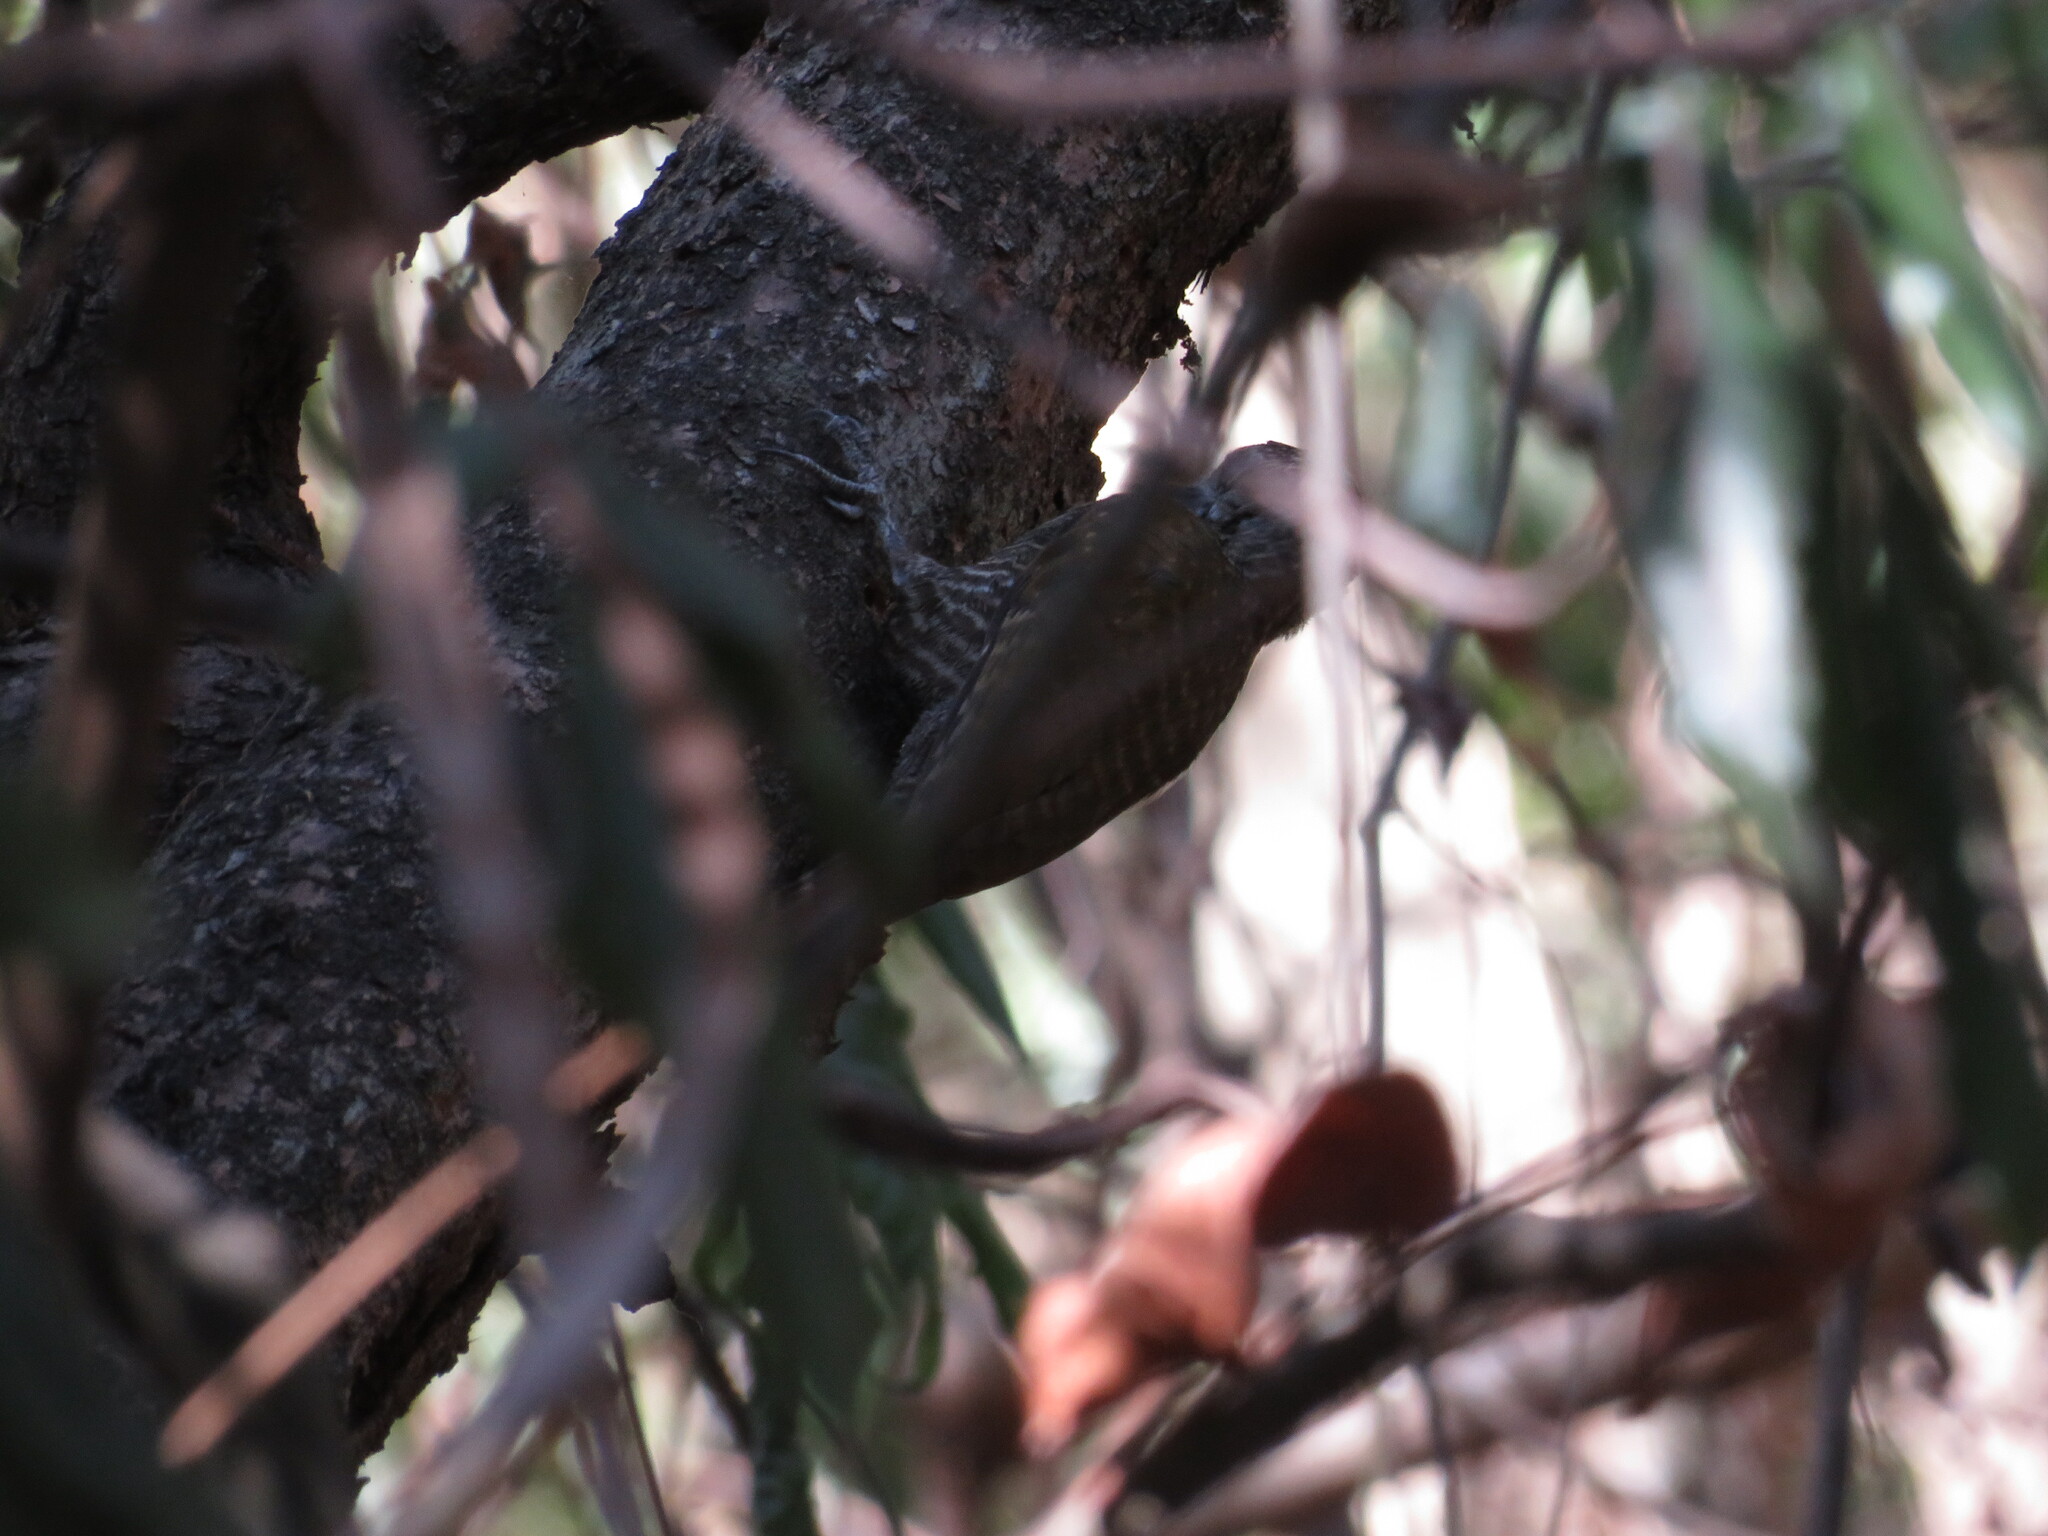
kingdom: Animalia
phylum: Chordata
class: Aves
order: Piciformes
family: Picidae
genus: Veniliornis
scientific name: Veniliornis frontalis
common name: Dot-fronted woodpecker
